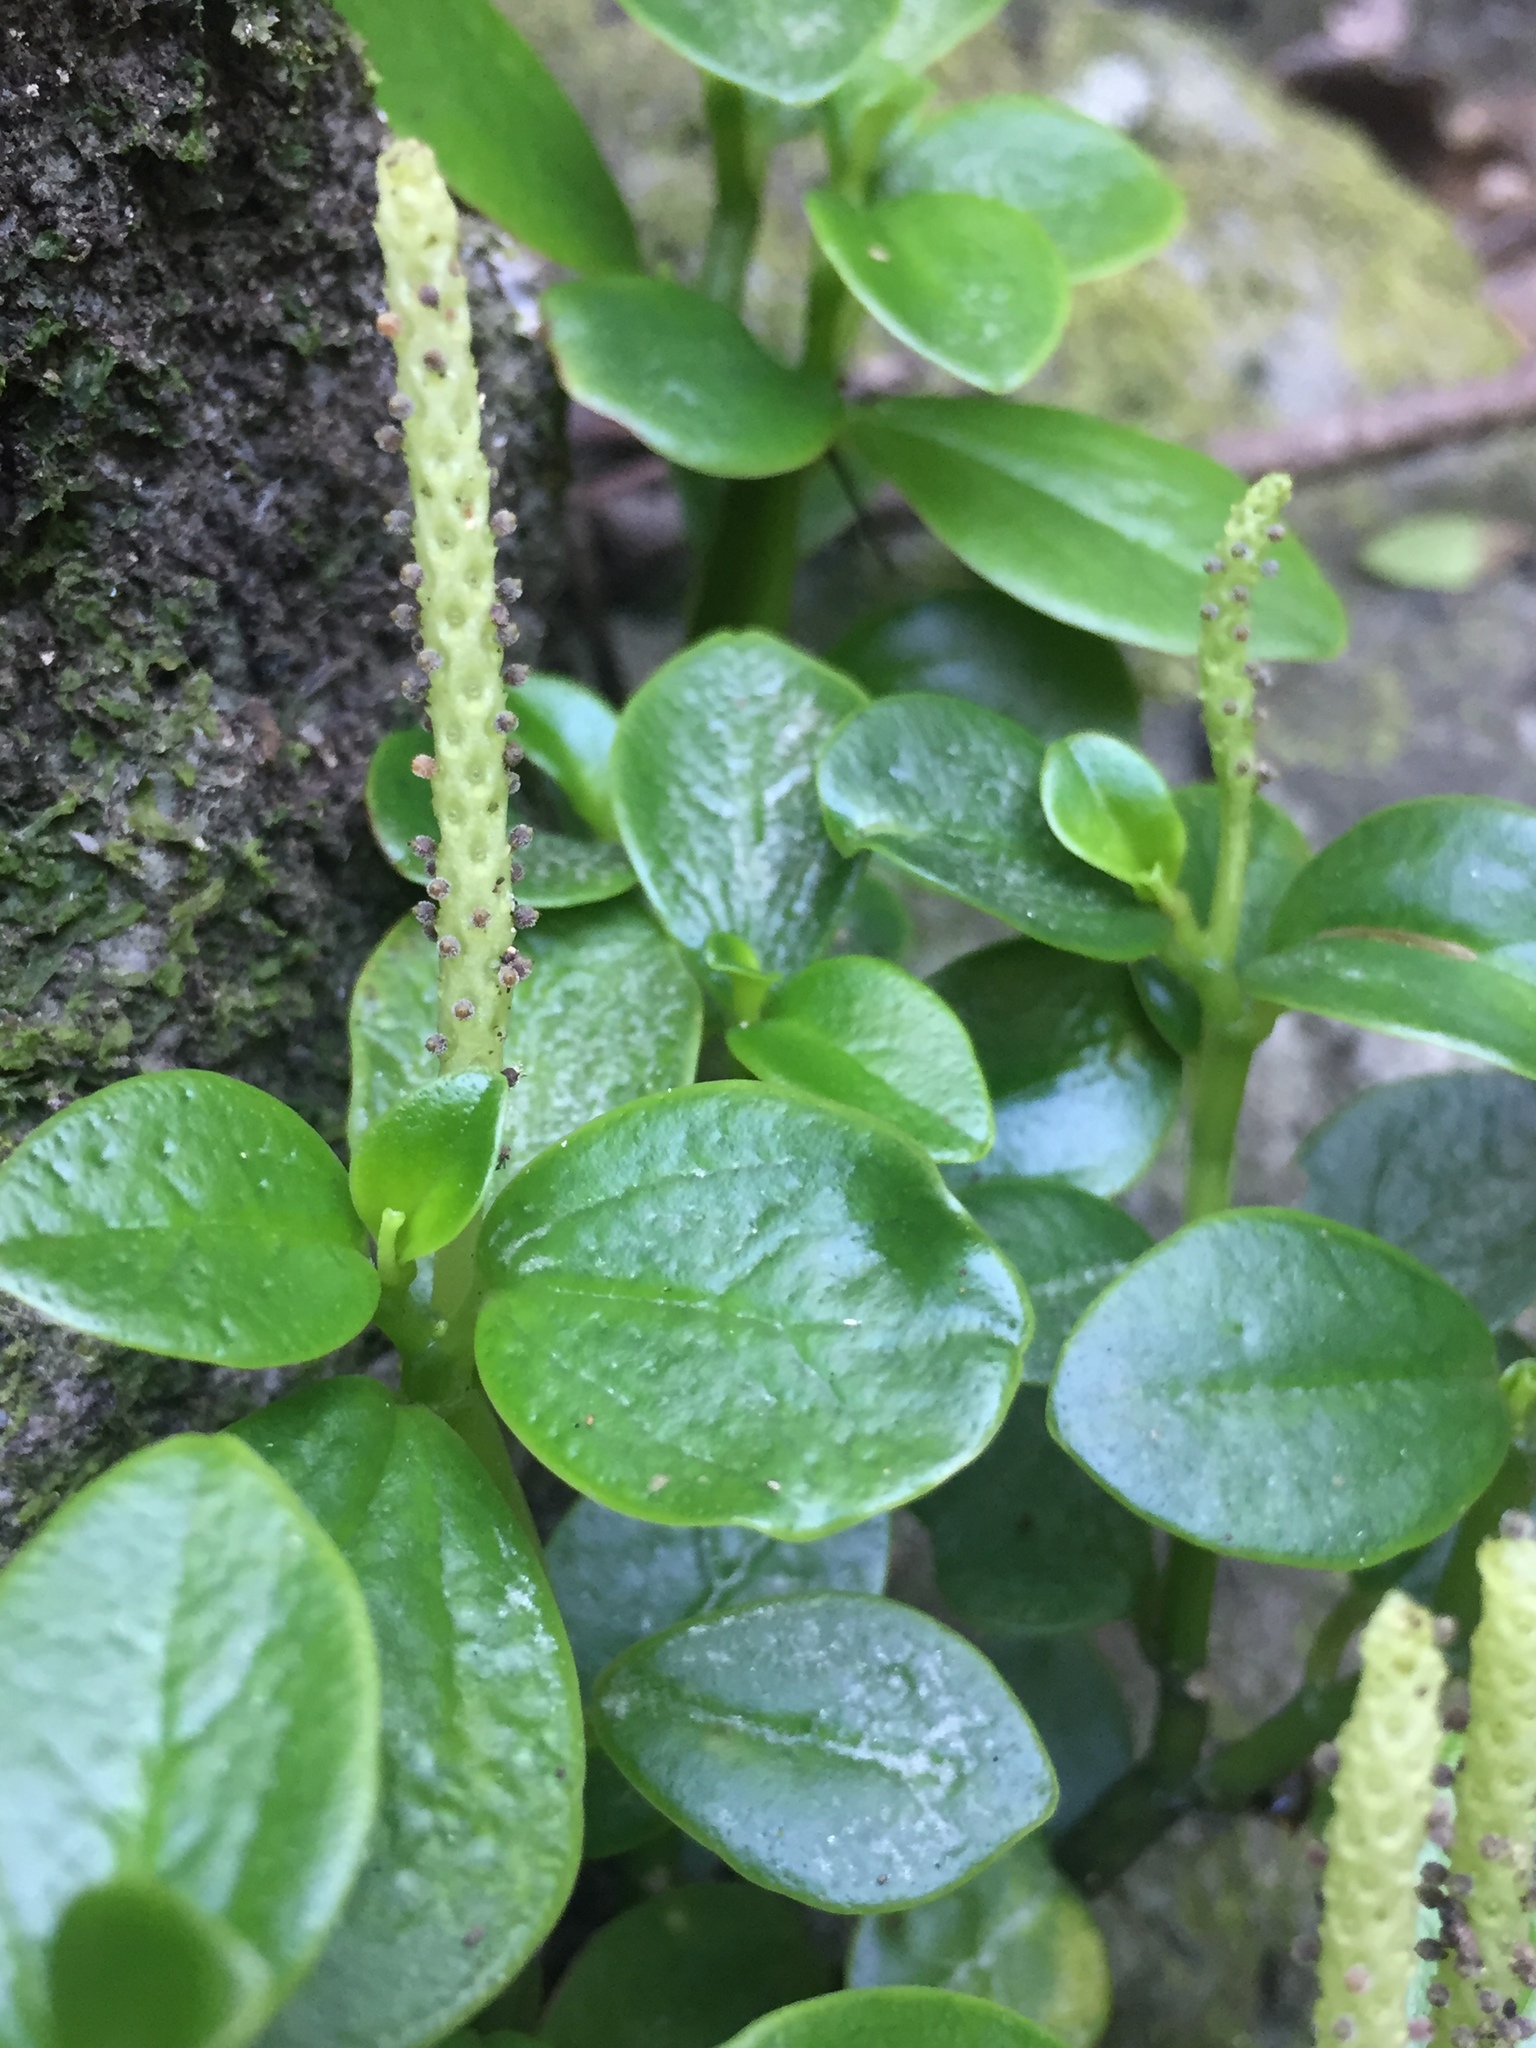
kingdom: Plantae
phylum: Tracheophyta
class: Magnoliopsida
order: Piperales
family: Piperaceae
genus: Peperomia
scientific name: Peperomia urvilleana
